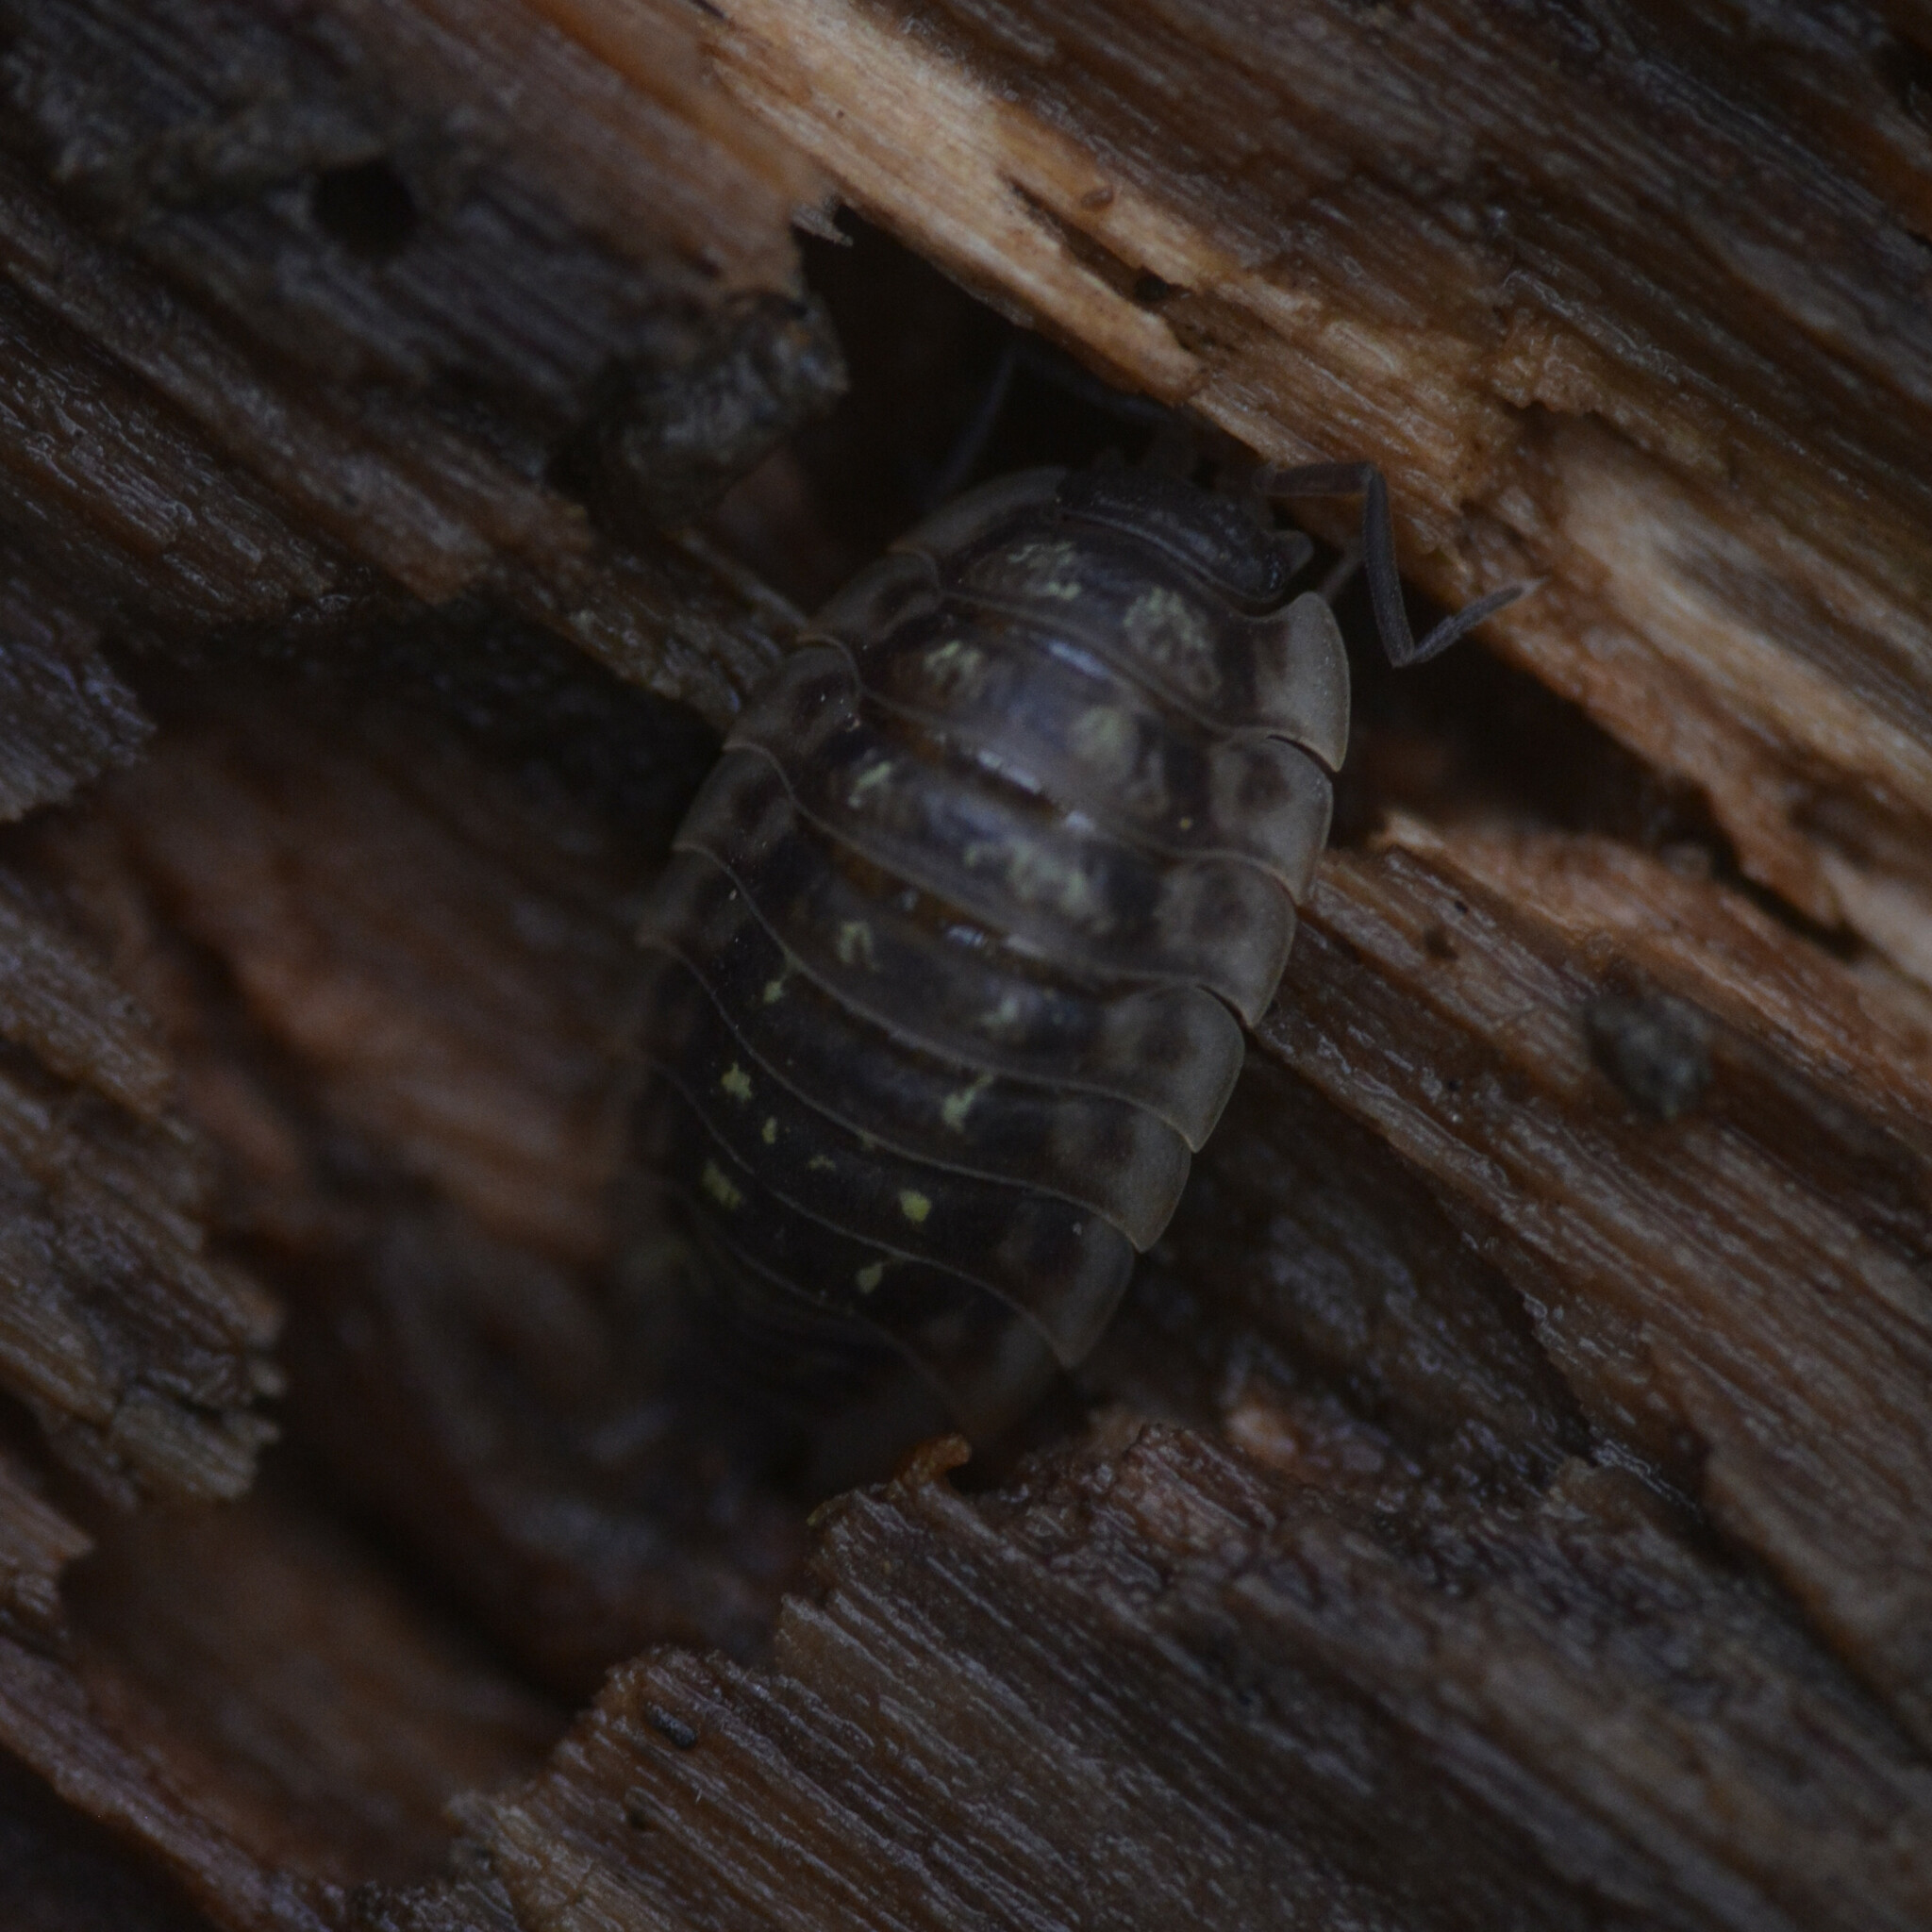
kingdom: Animalia
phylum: Arthropoda
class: Malacostraca
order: Isopoda
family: Oniscidae
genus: Oniscus
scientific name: Oniscus asellus
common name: Common shiny woodlouse
